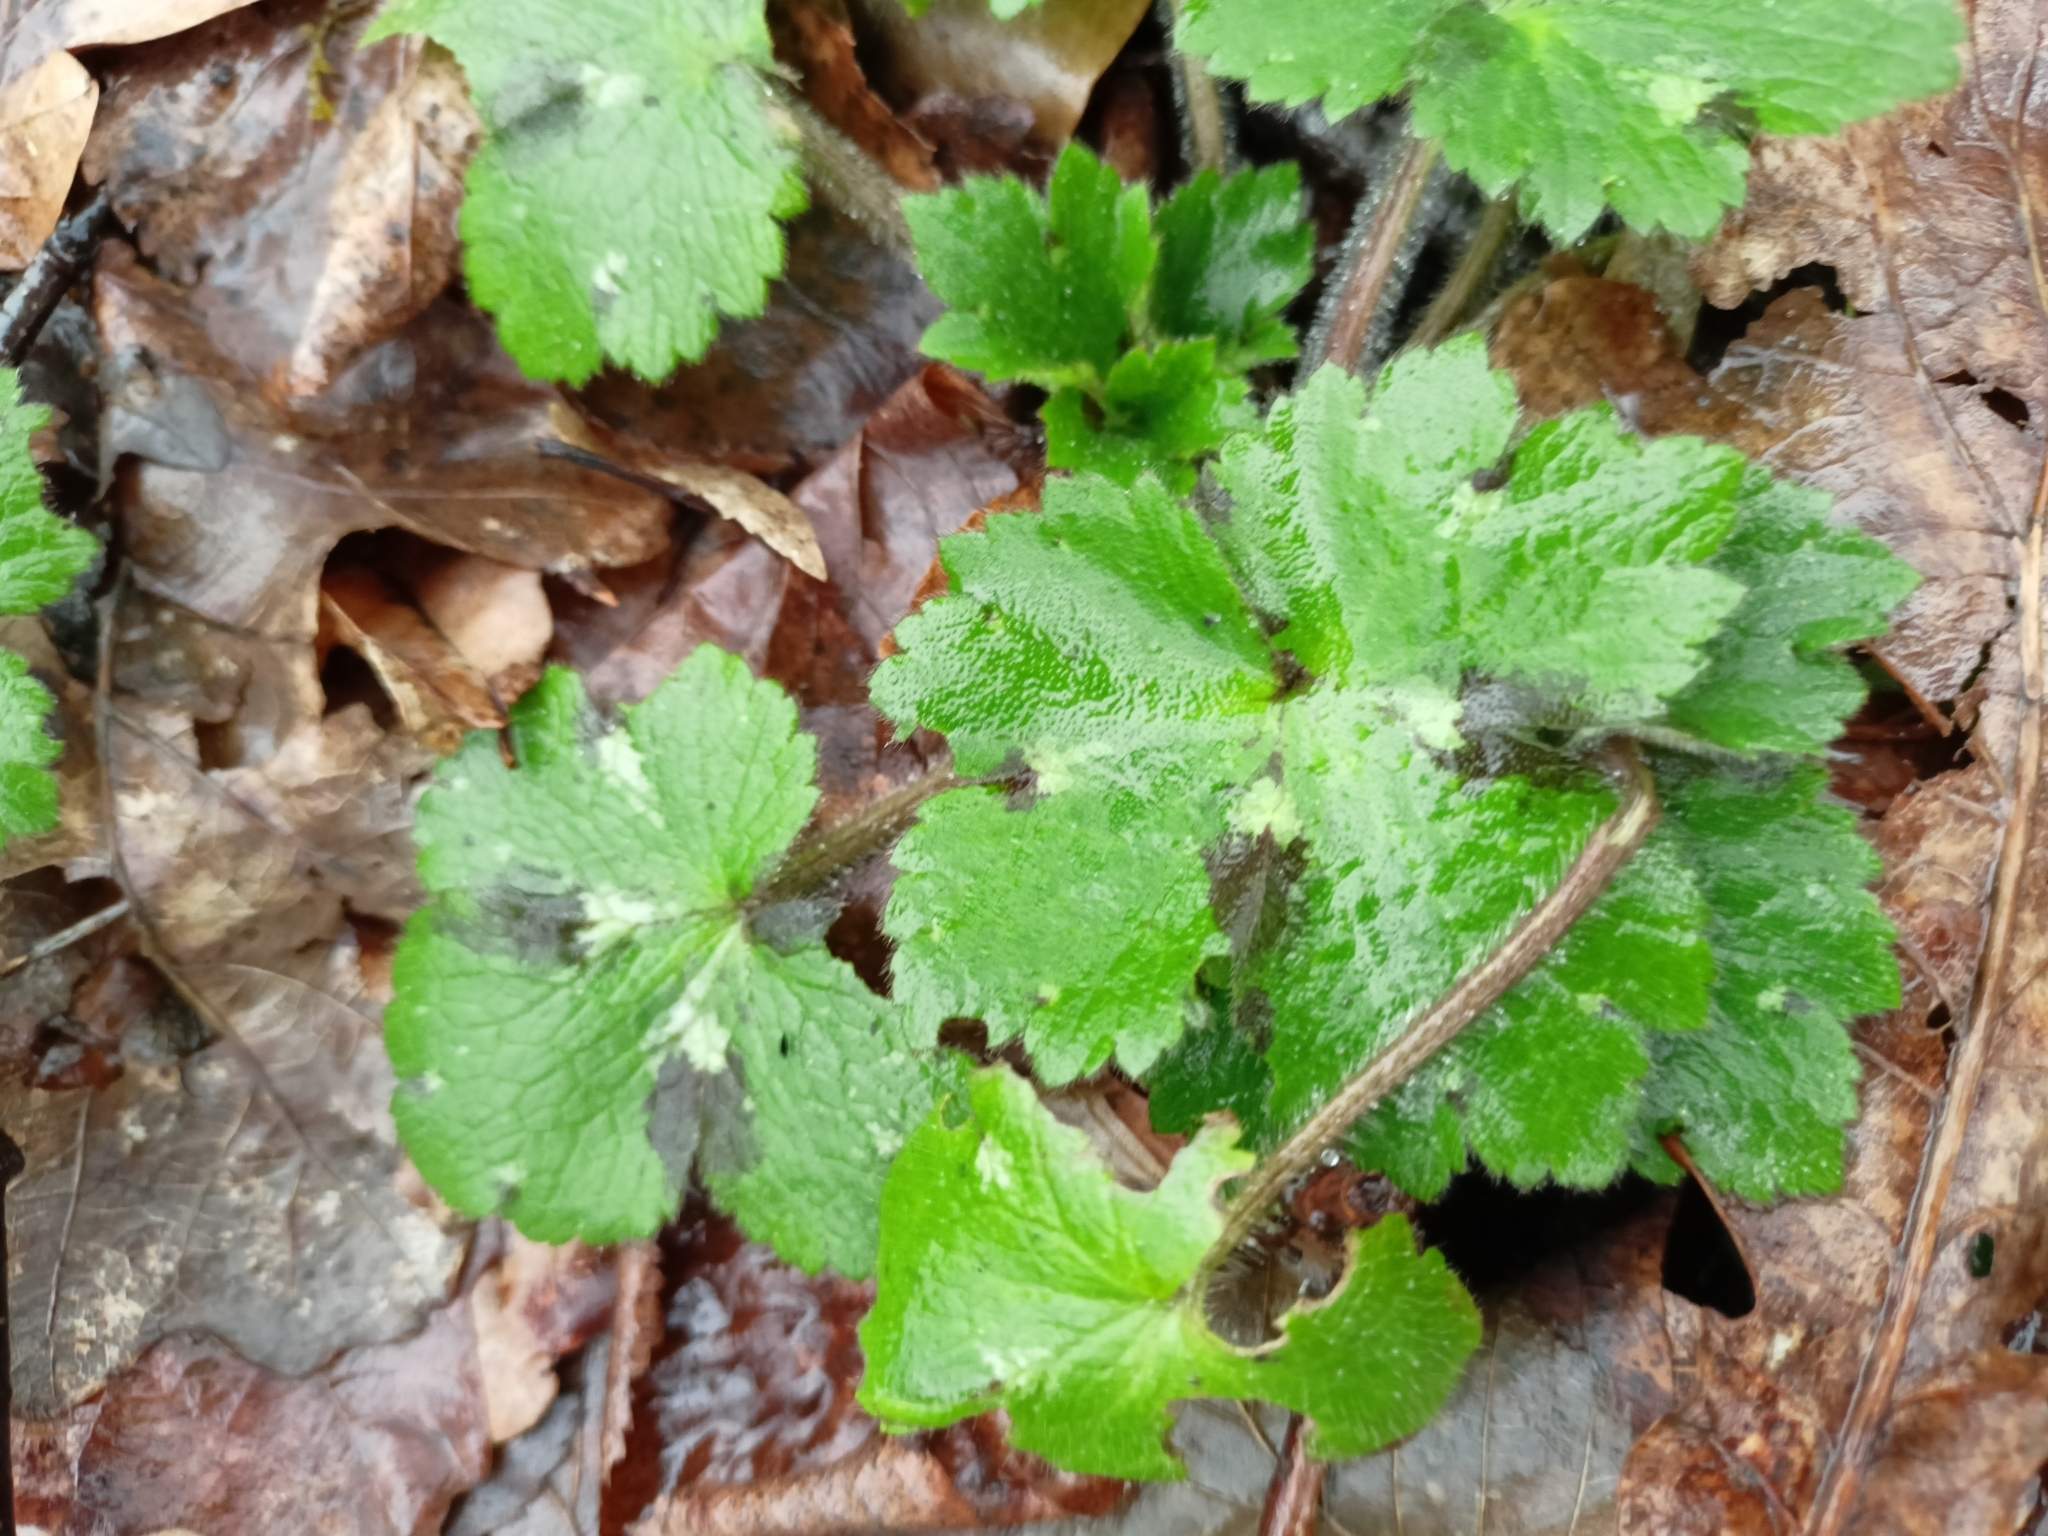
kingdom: Plantae
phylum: Tracheophyta
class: Magnoliopsida
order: Ranunculales
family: Ranunculaceae
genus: Ranunculus
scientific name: Ranunculus lanuginosus
